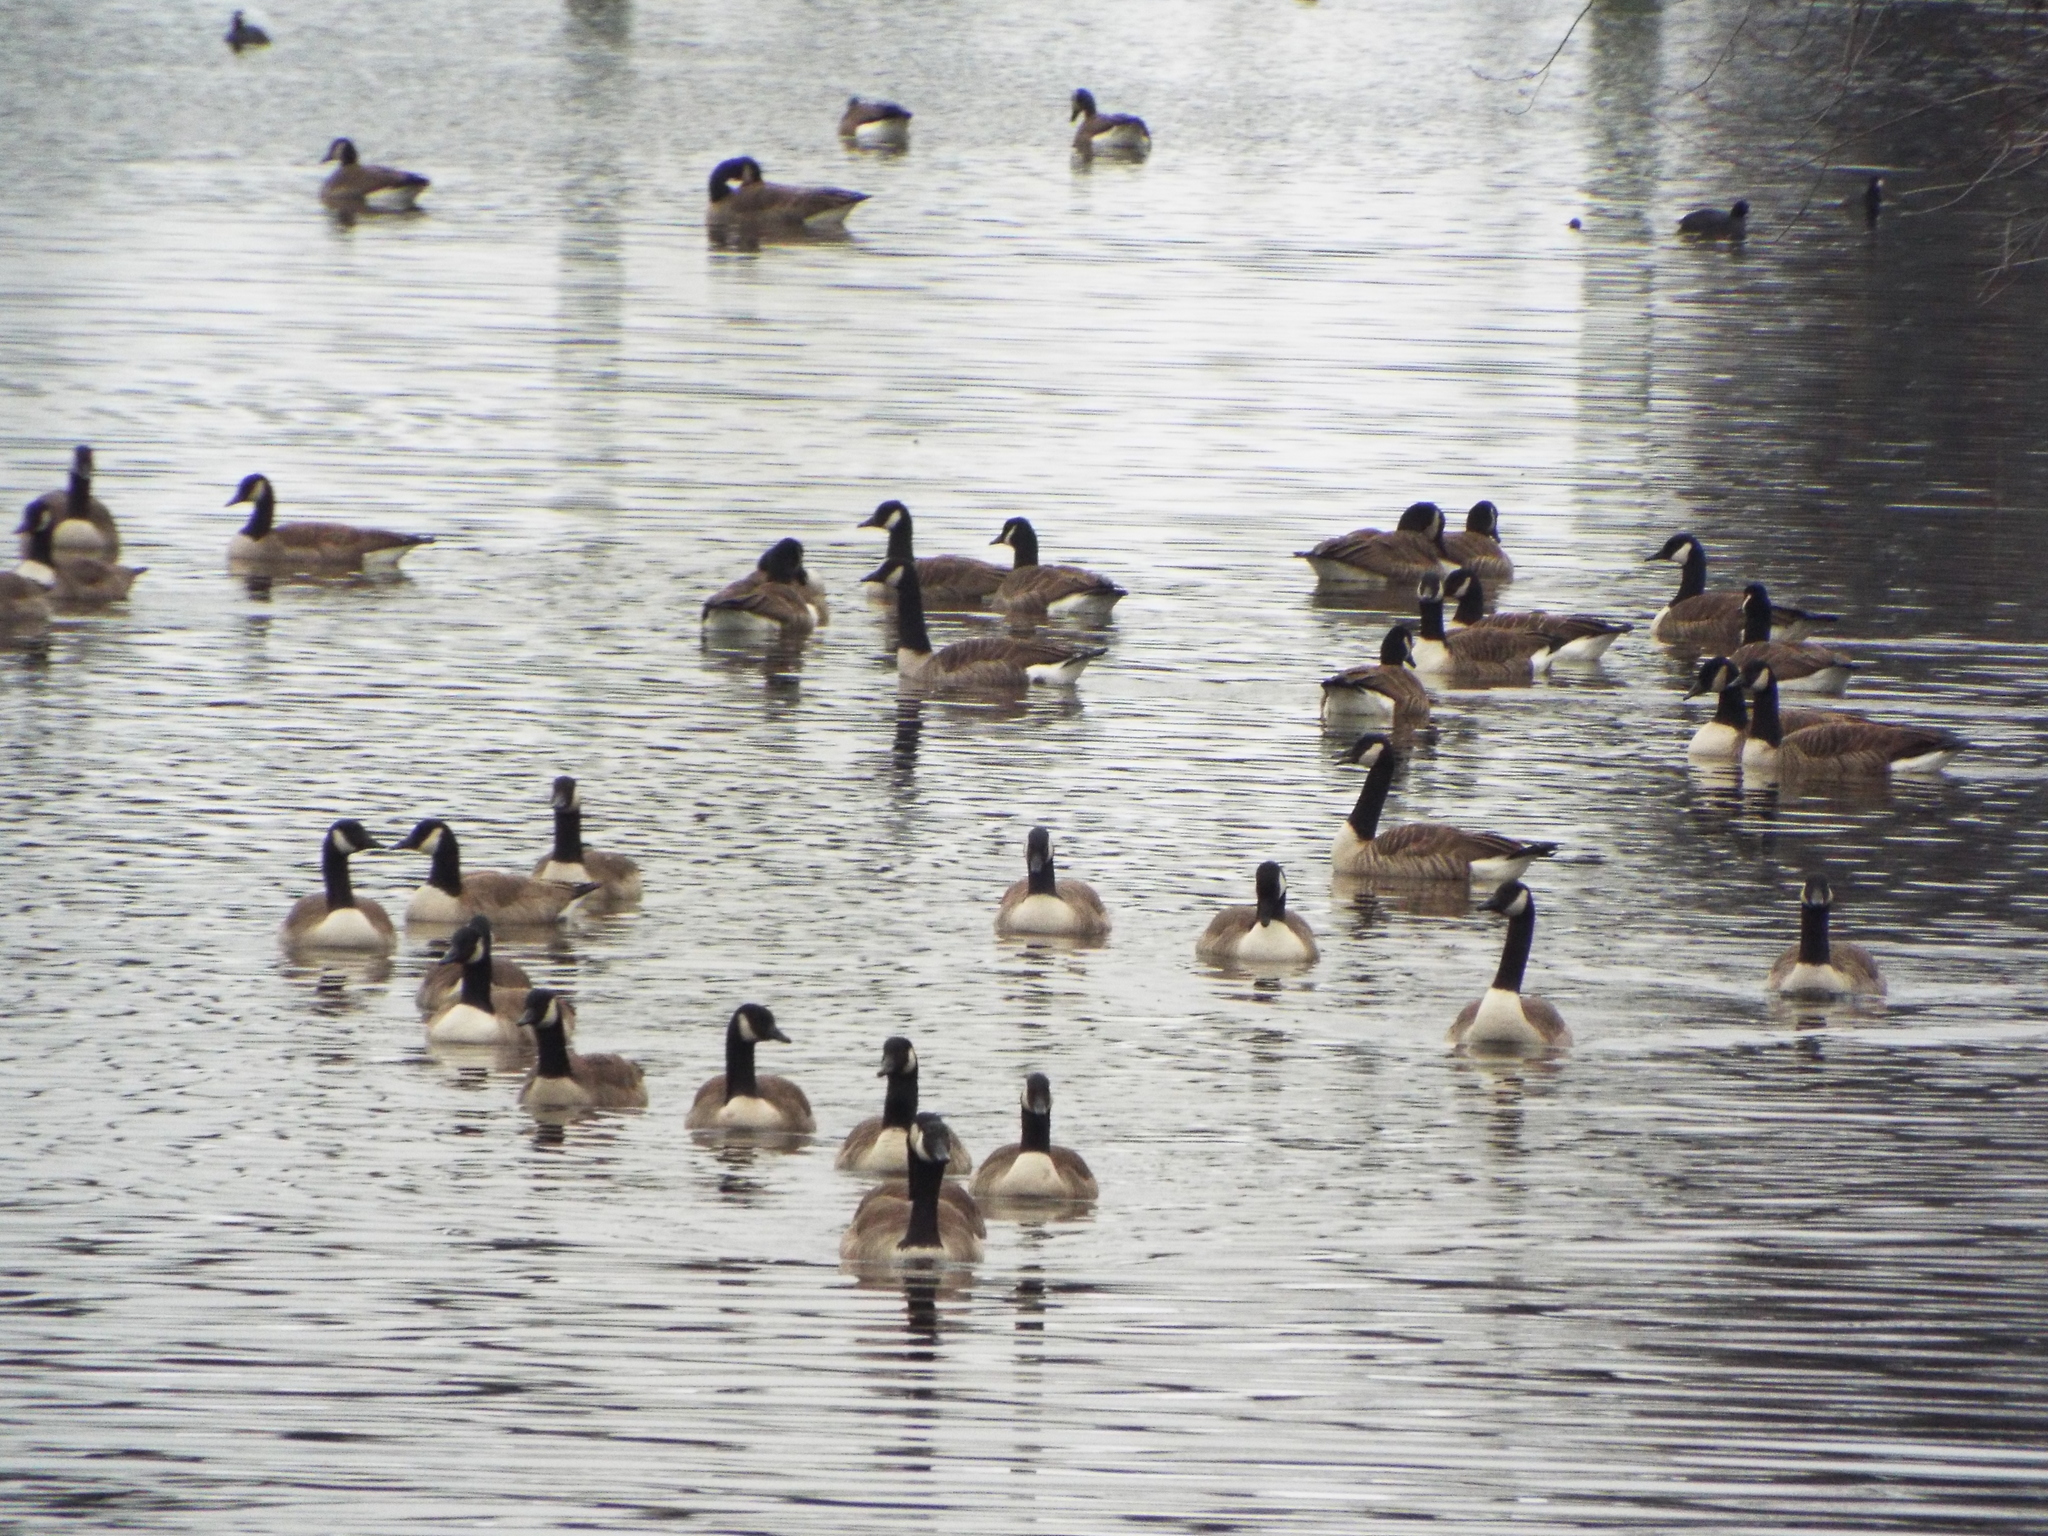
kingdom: Animalia
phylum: Chordata
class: Aves
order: Anseriformes
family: Anatidae
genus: Branta
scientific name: Branta canadensis
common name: Canada goose
